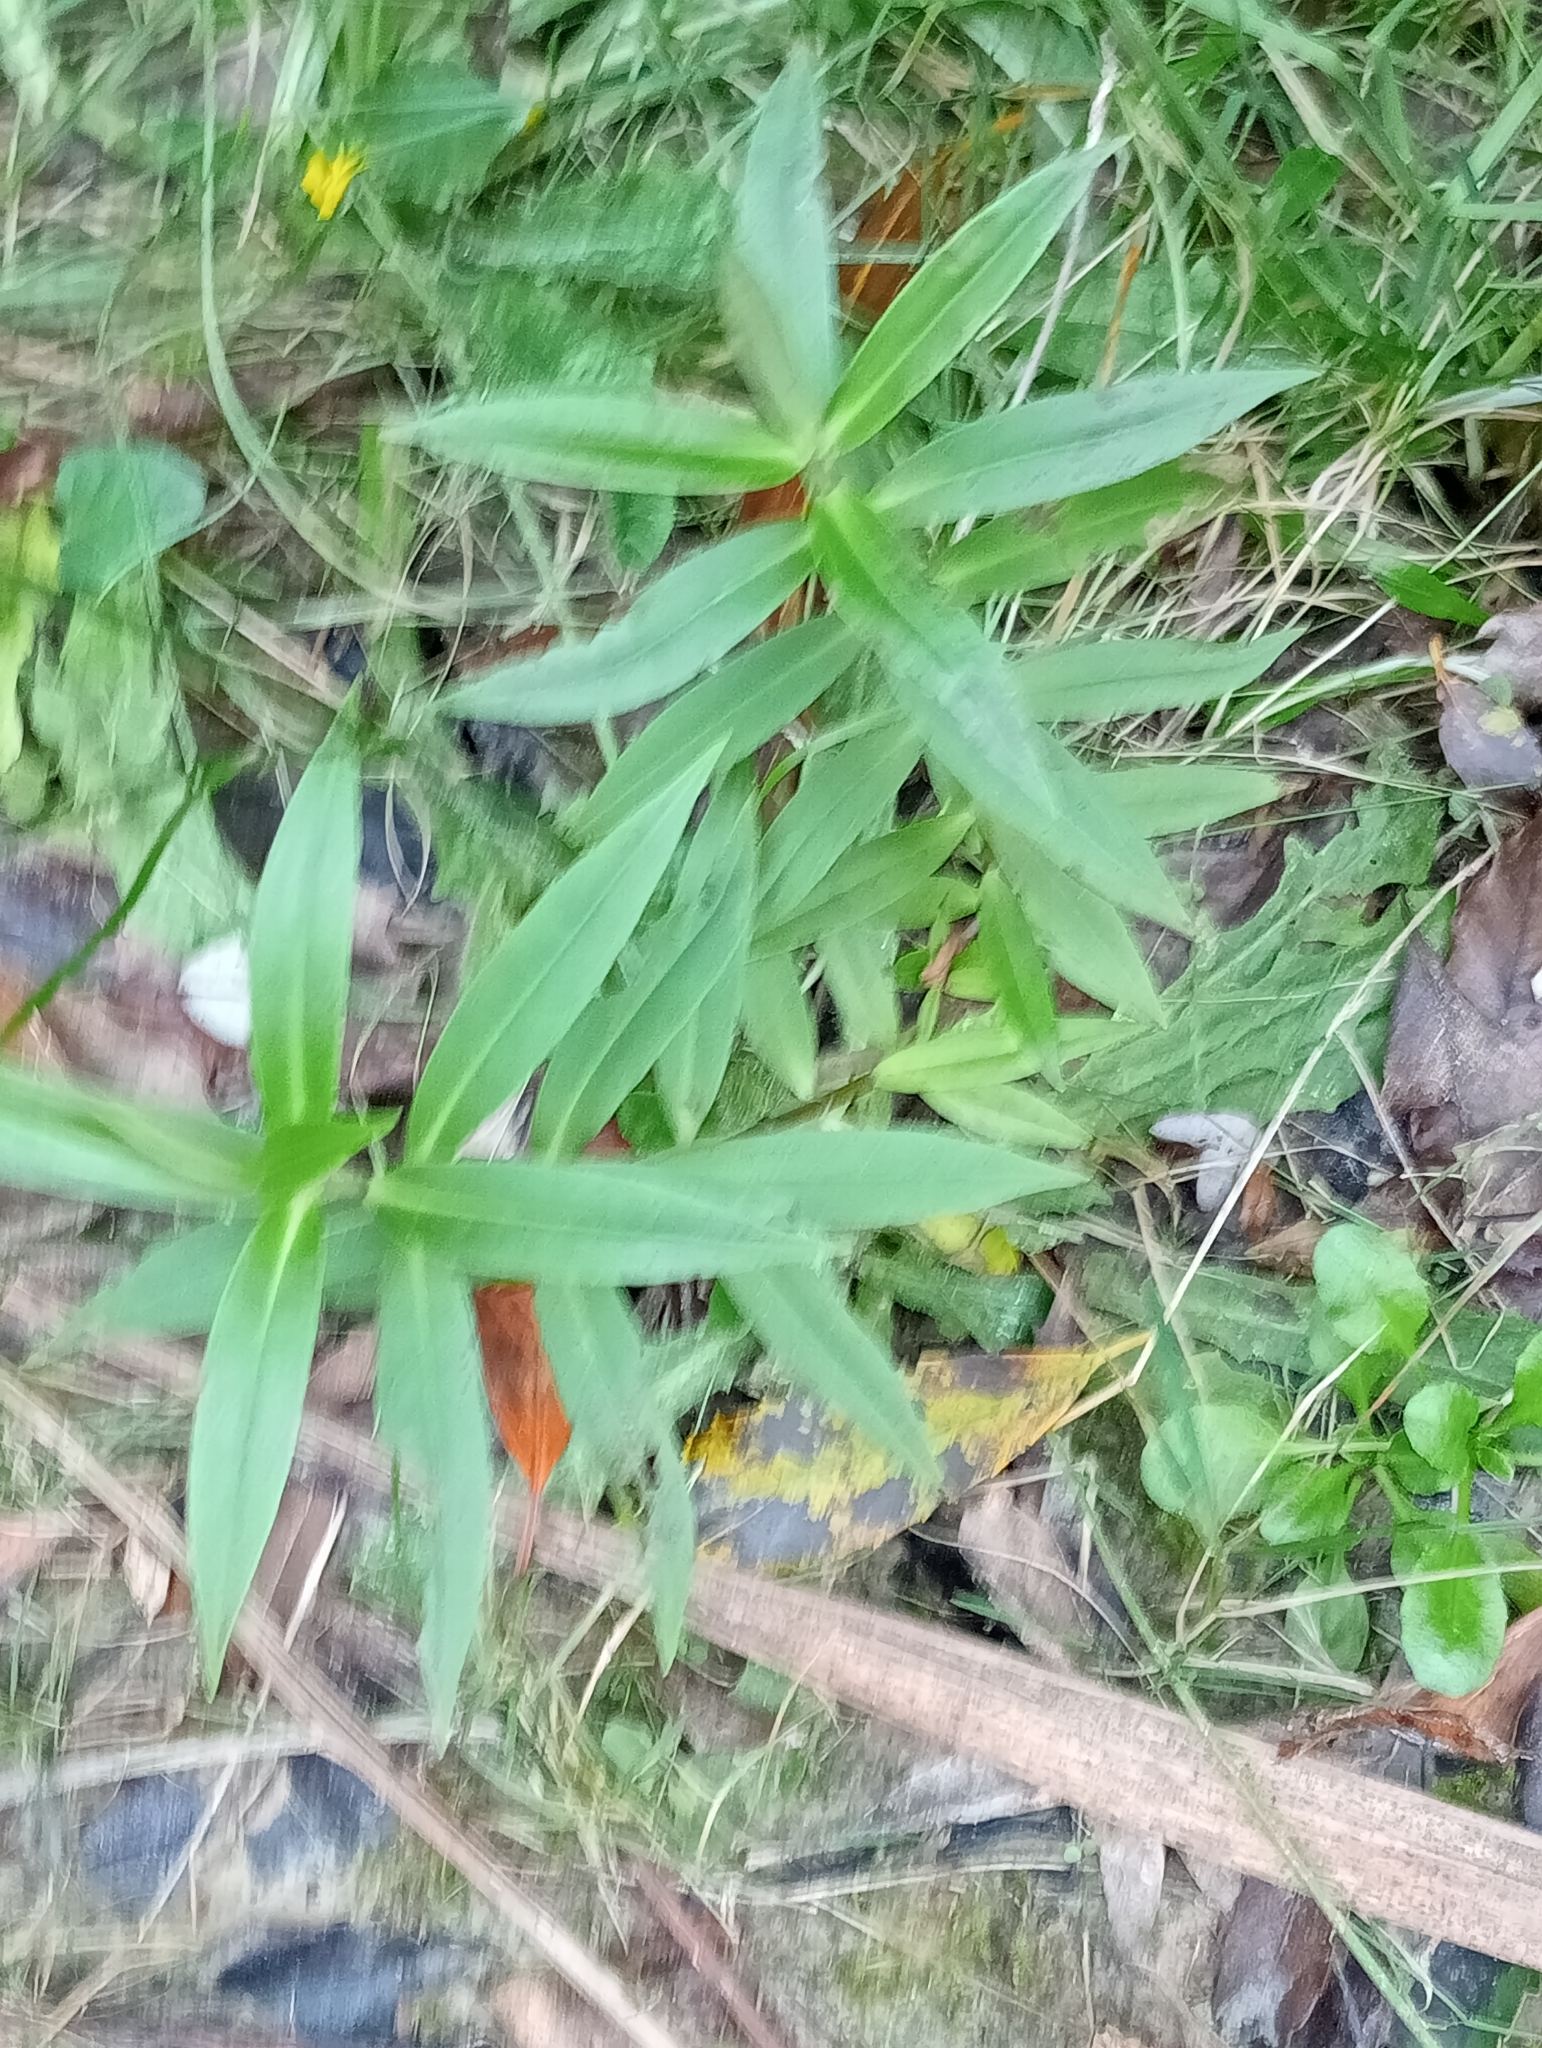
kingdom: Plantae
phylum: Tracheophyta
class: Magnoliopsida
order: Lamiales
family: Plantaginaceae
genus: Veronica
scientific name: Veronica salicifolia
